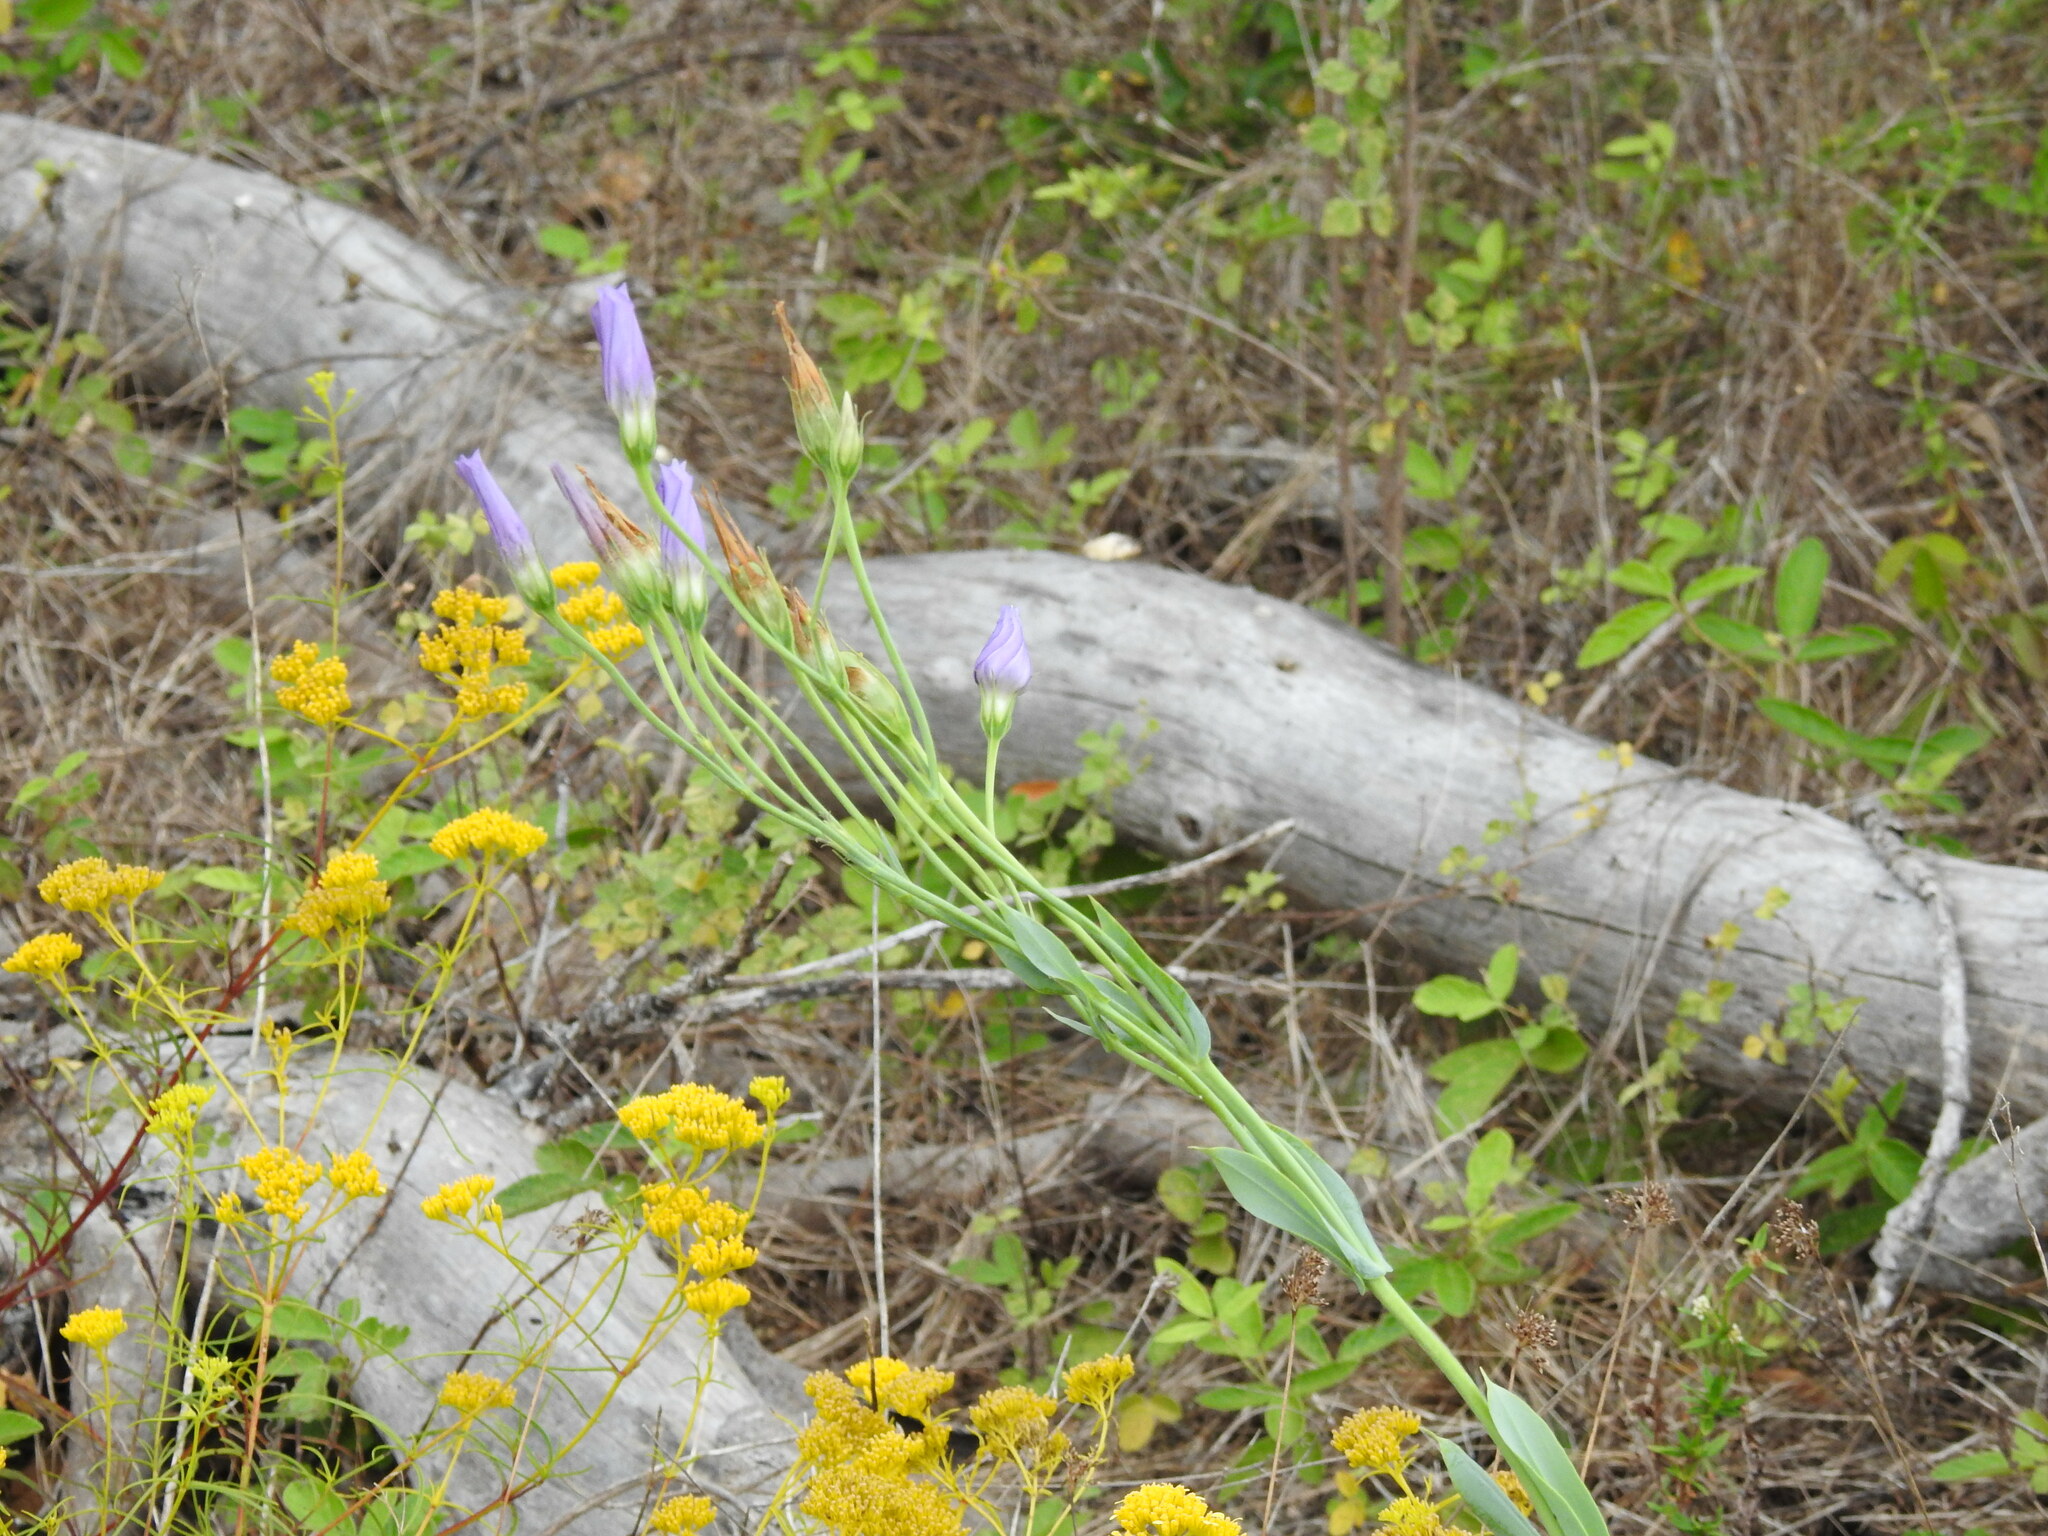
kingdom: Plantae
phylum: Tracheophyta
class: Magnoliopsida
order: Gentianales
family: Gentianaceae
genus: Eustoma
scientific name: Eustoma exaltatum
